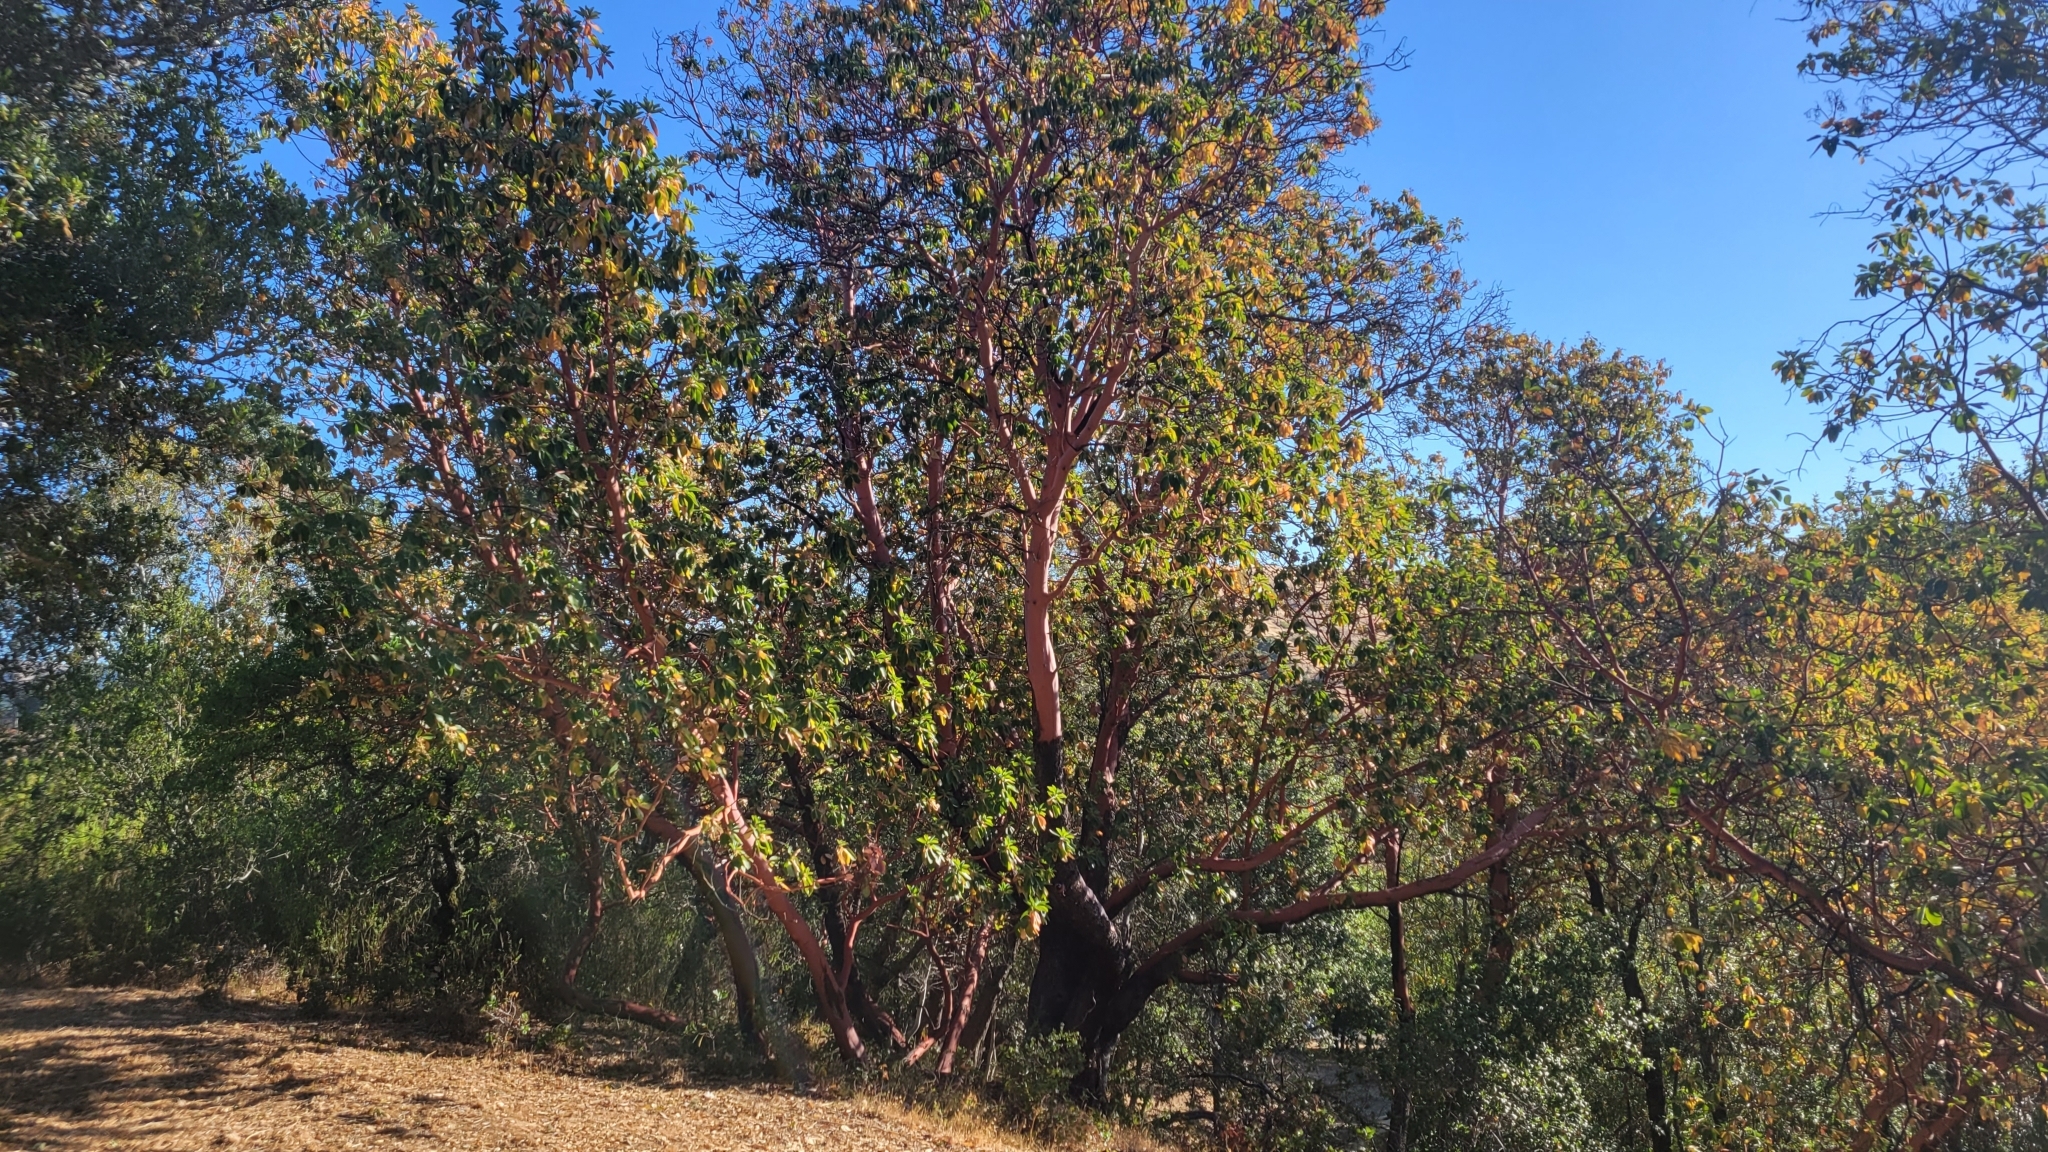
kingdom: Plantae
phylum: Tracheophyta
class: Magnoliopsida
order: Ericales
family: Ericaceae
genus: Arbutus
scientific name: Arbutus menziesii
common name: Pacific madrone
